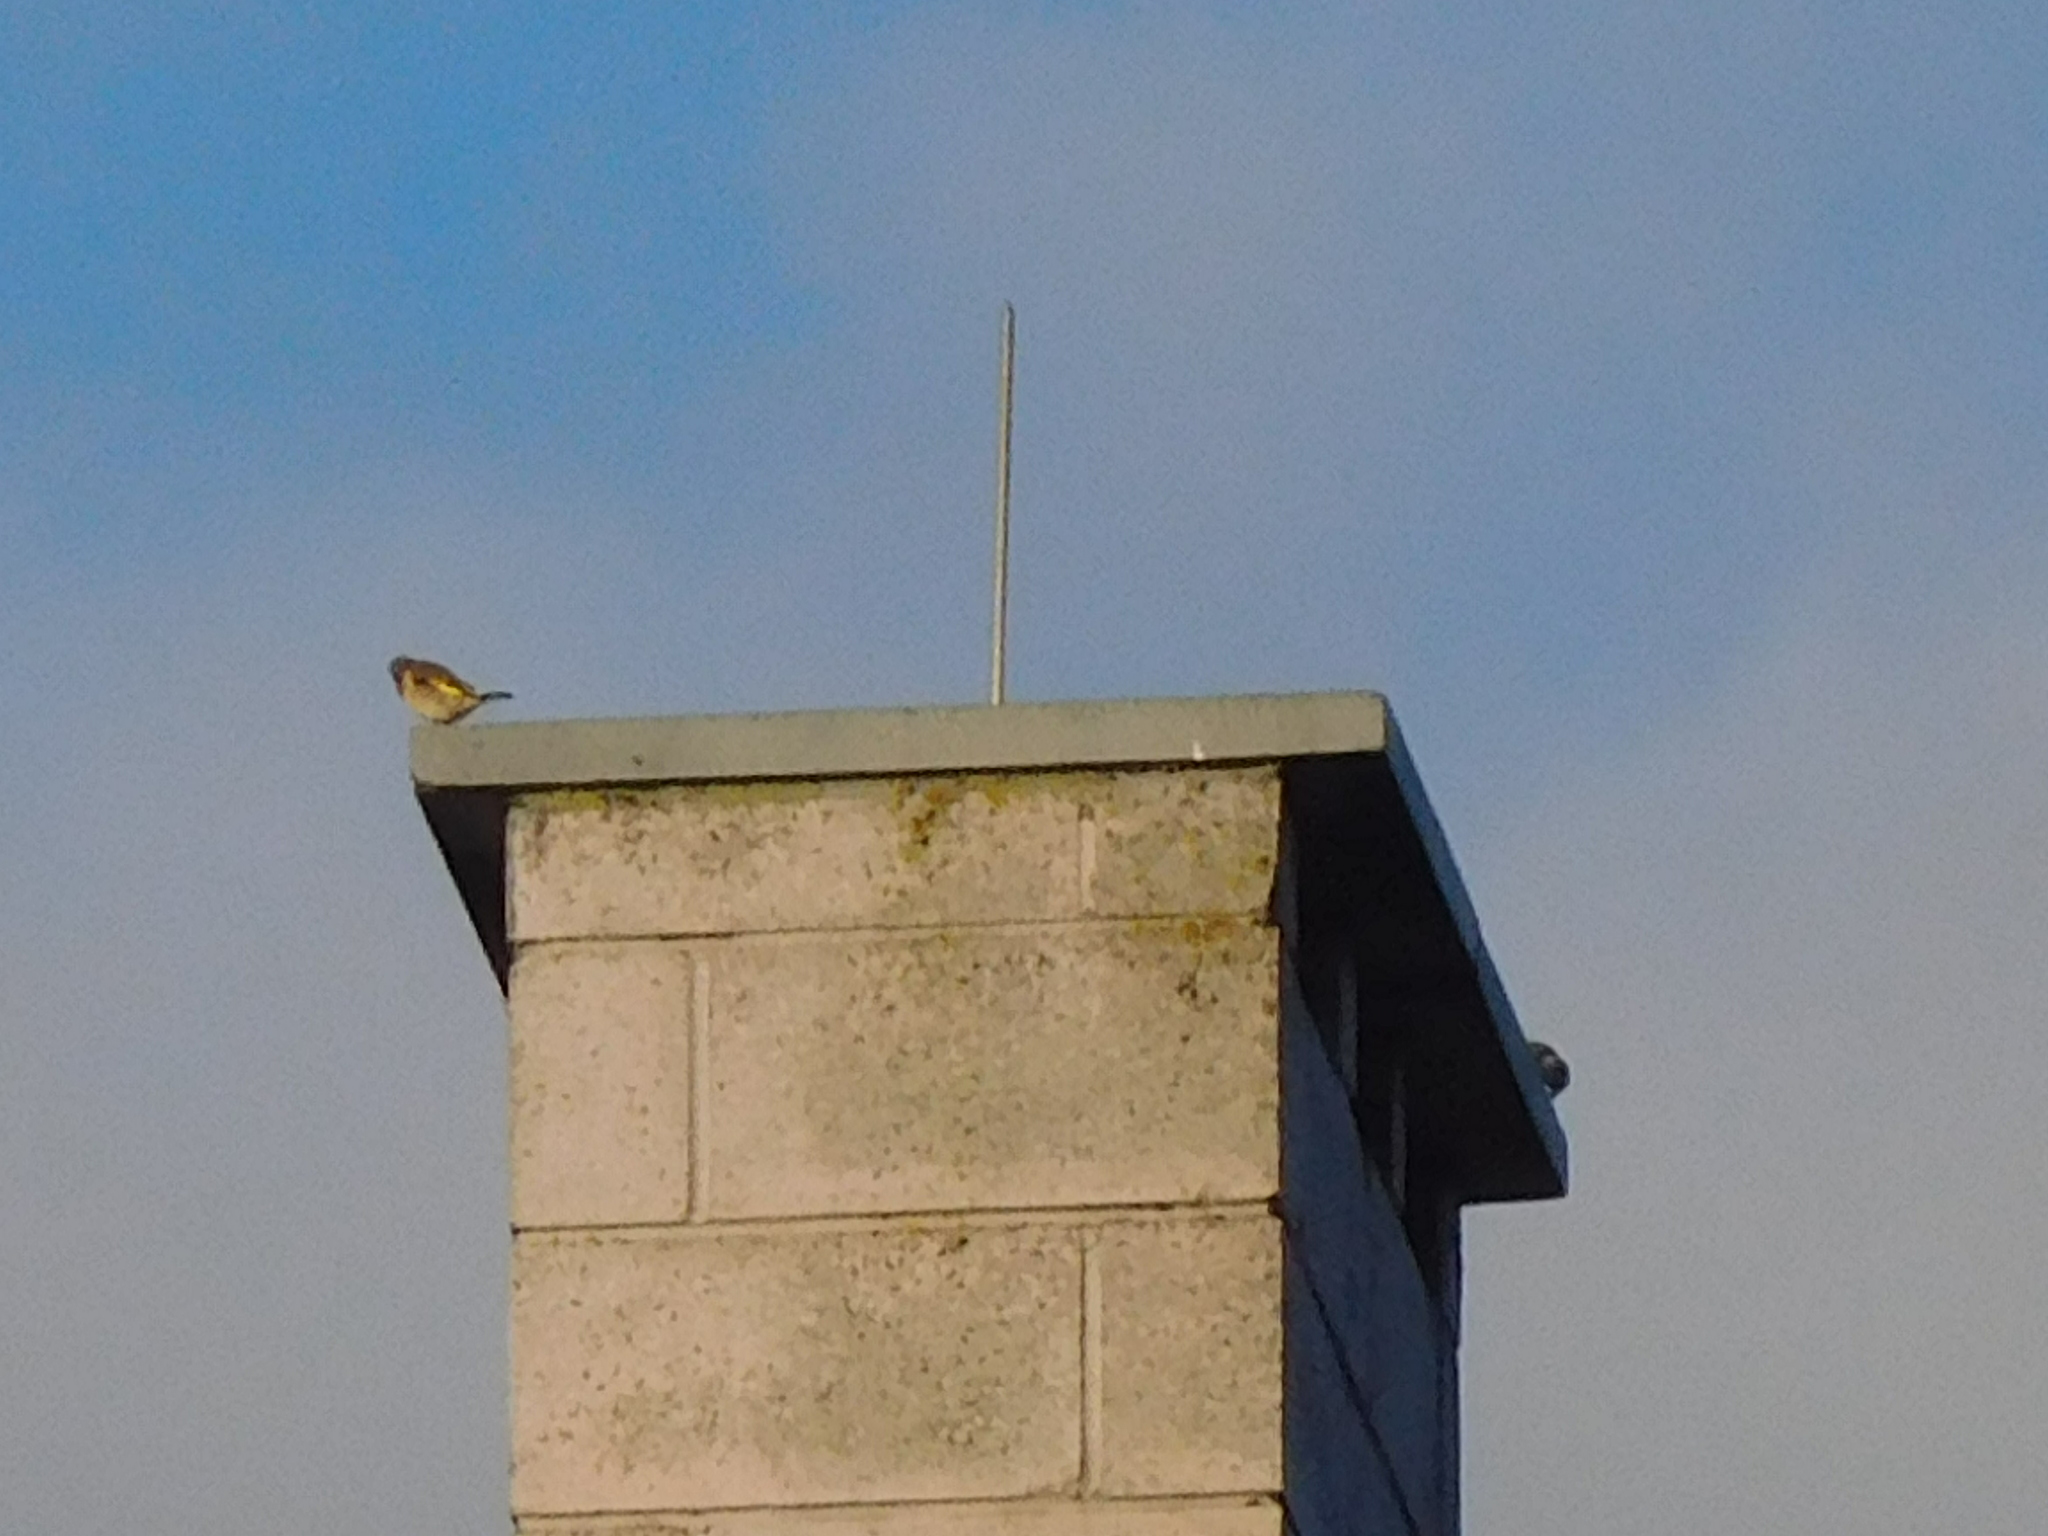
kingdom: Animalia
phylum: Chordata
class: Aves
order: Passeriformes
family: Fringillidae
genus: Carduelis
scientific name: Carduelis carduelis
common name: European goldfinch
